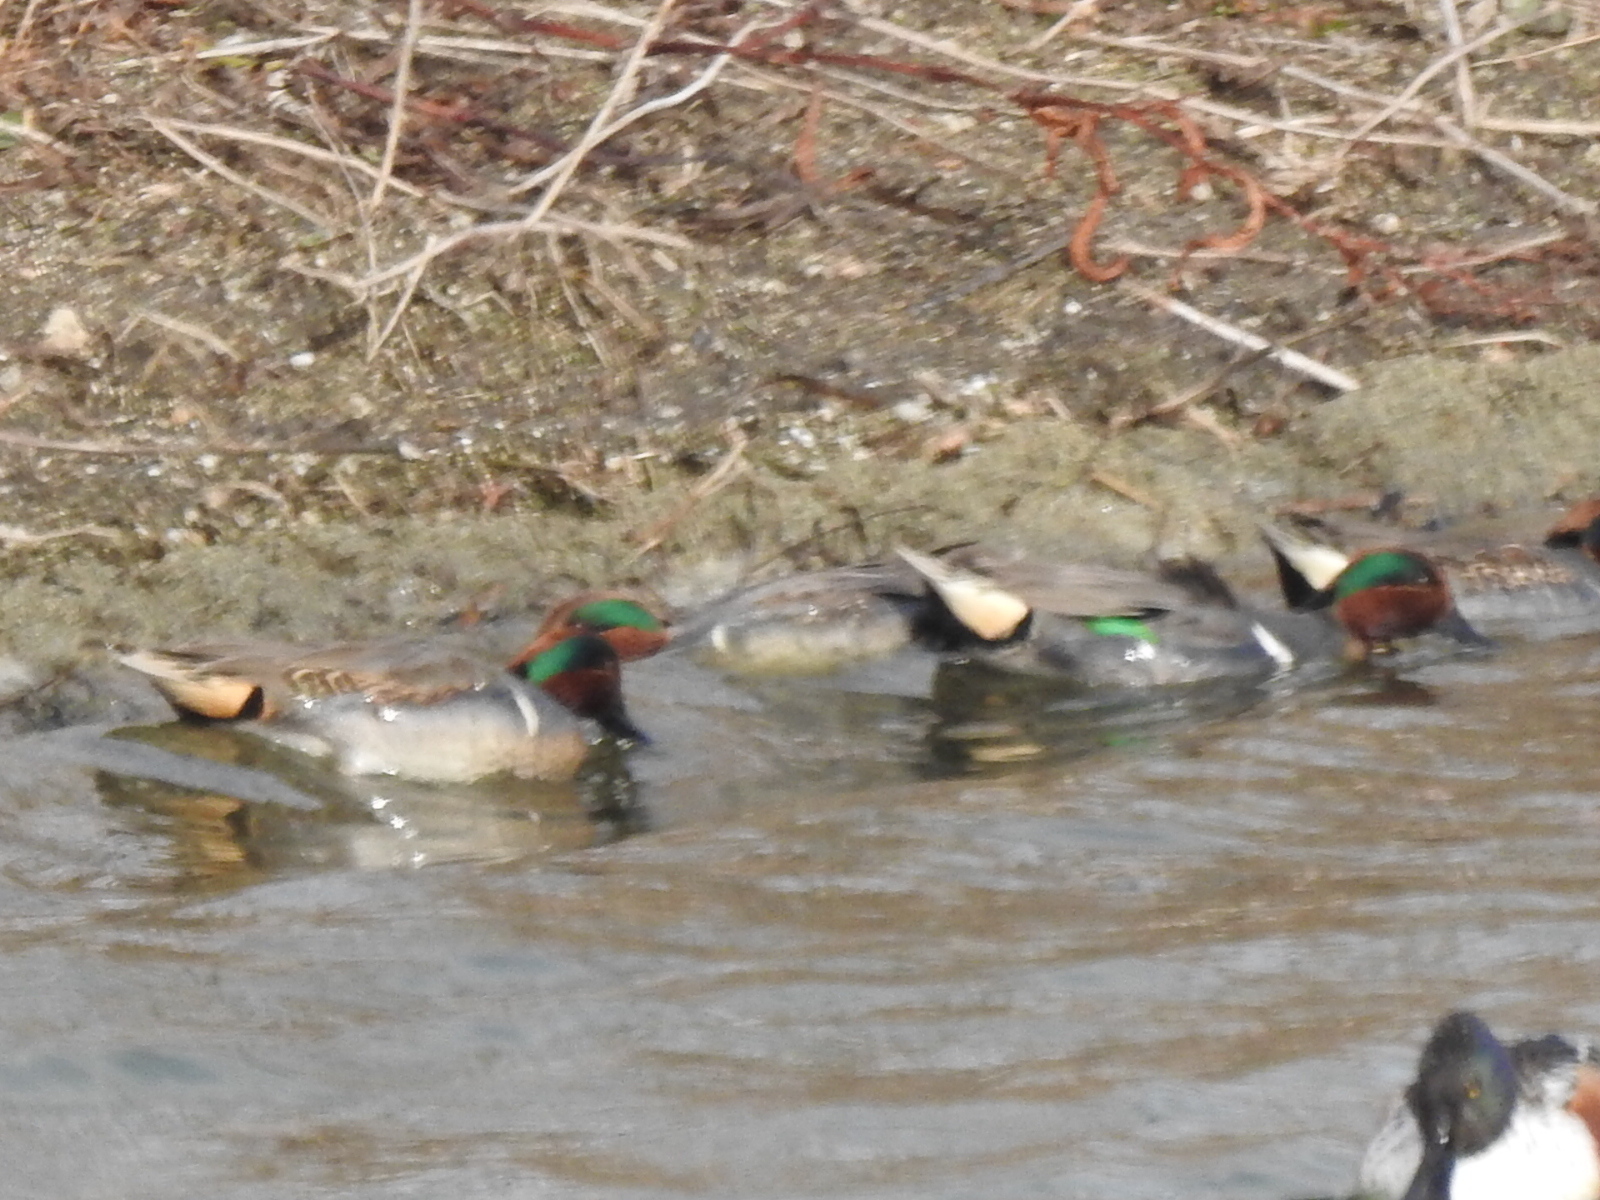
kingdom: Animalia
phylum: Chordata
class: Aves
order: Anseriformes
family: Anatidae
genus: Anas
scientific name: Anas crecca
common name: Eurasian teal
